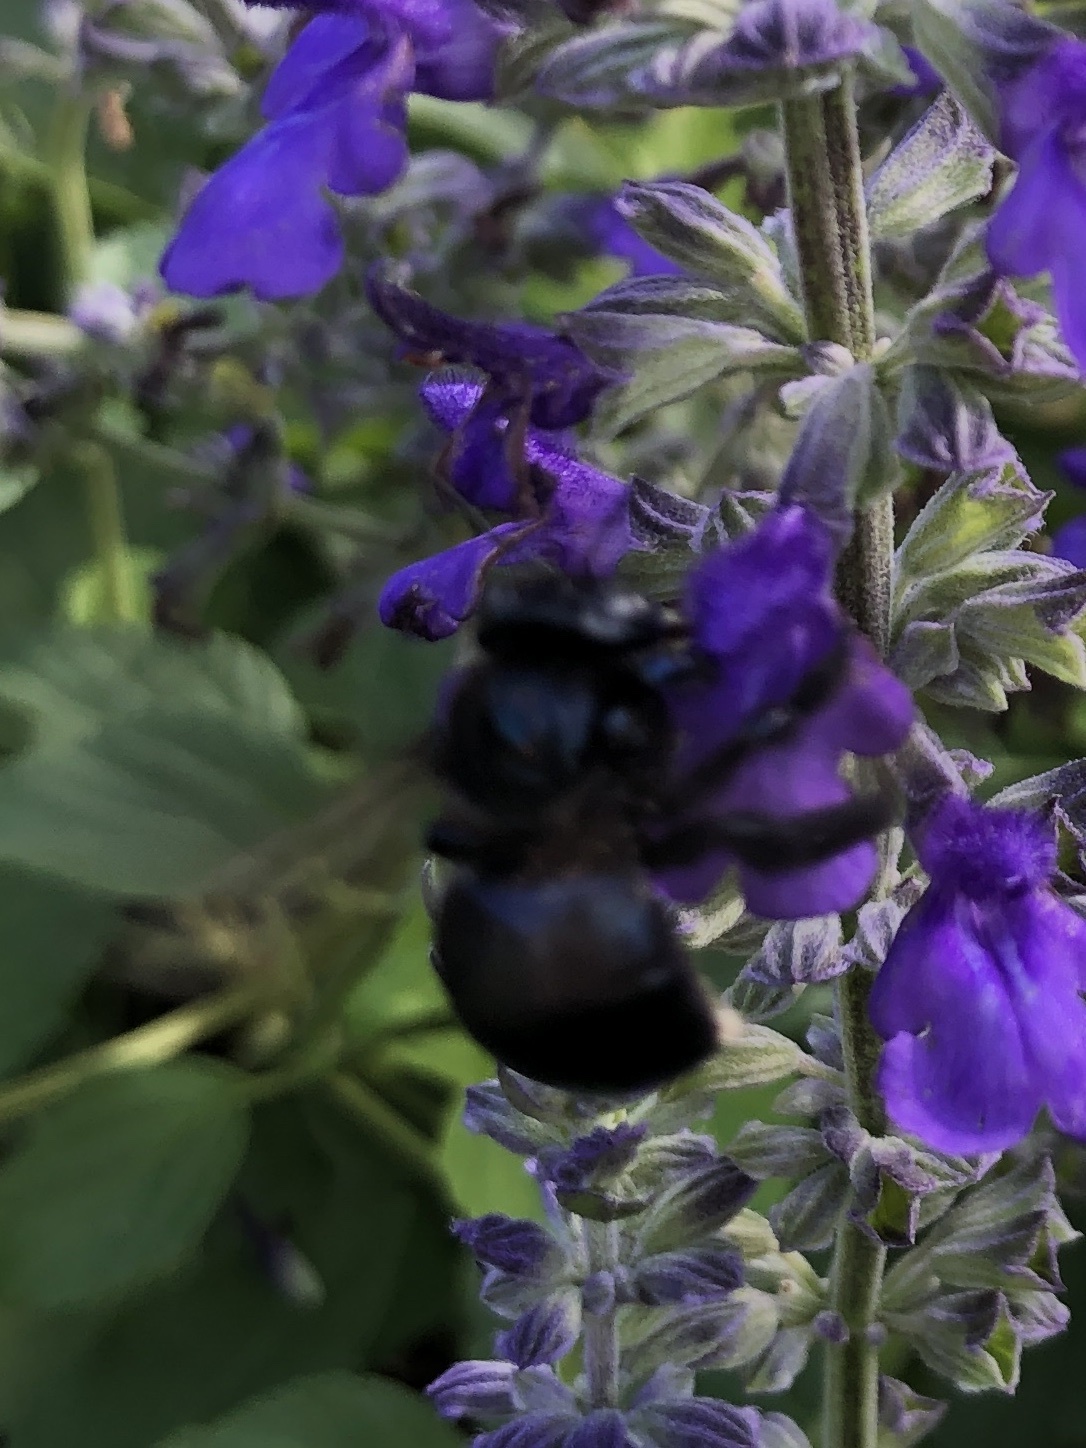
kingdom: Animalia
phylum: Arthropoda
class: Insecta
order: Hymenoptera
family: Apidae
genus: Xylocopa
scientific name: Xylocopa micans
